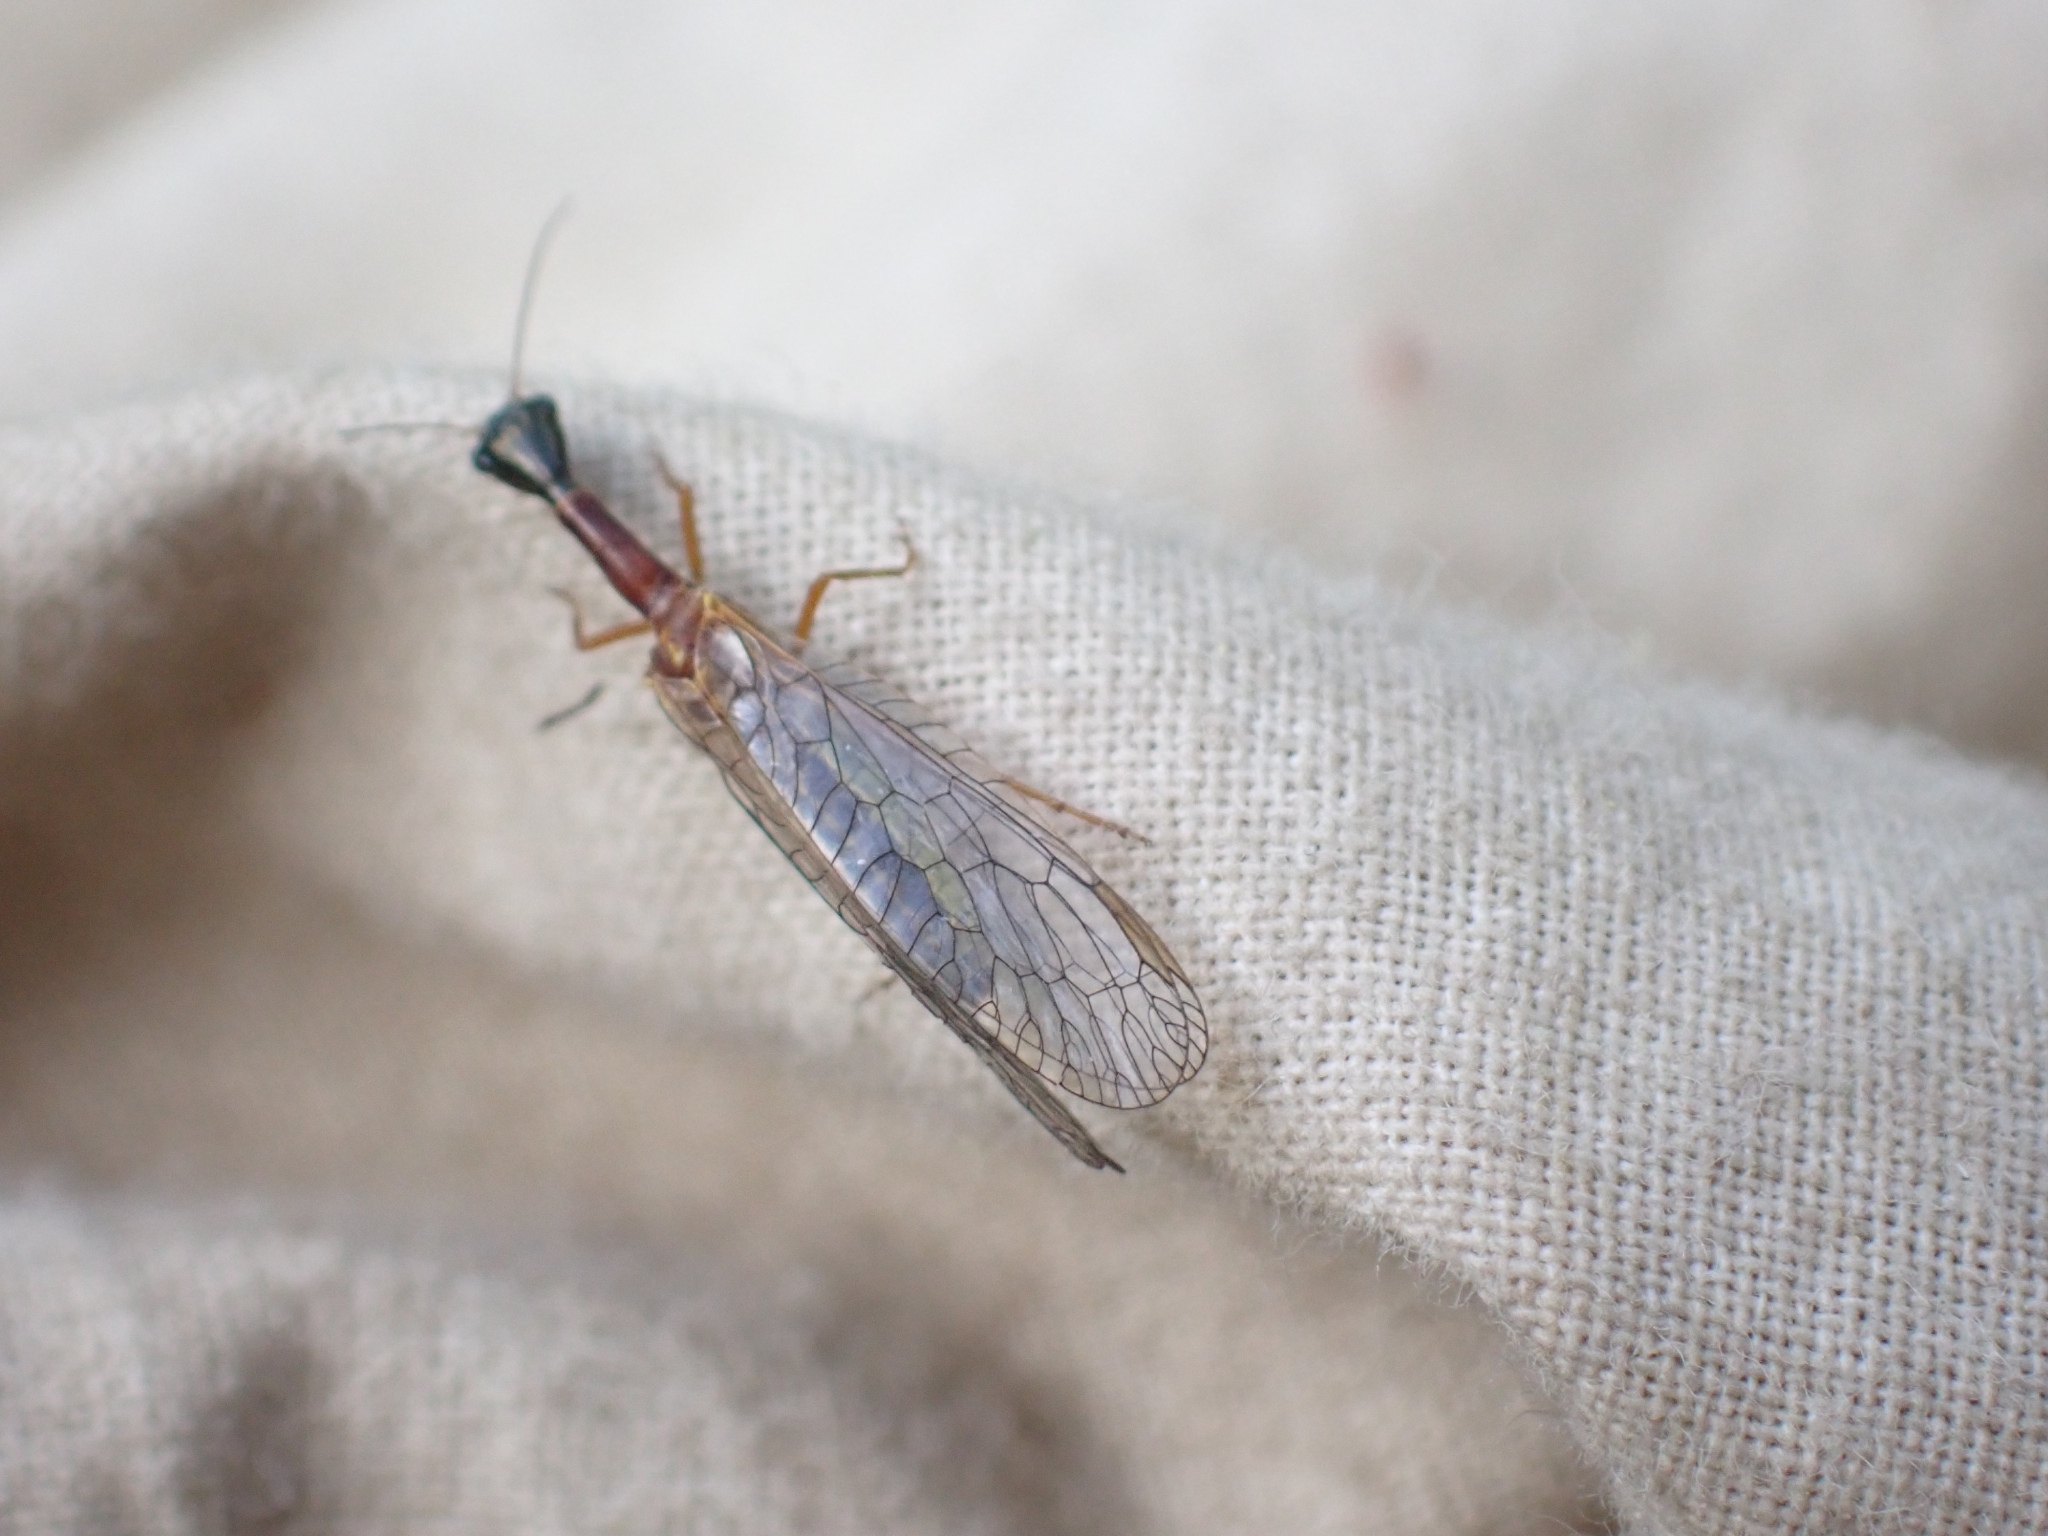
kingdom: Animalia
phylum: Arthropoda
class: Insecta
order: Raphidioptera
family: Raphidiidae
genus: Agulla
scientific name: Agulla unicolor
